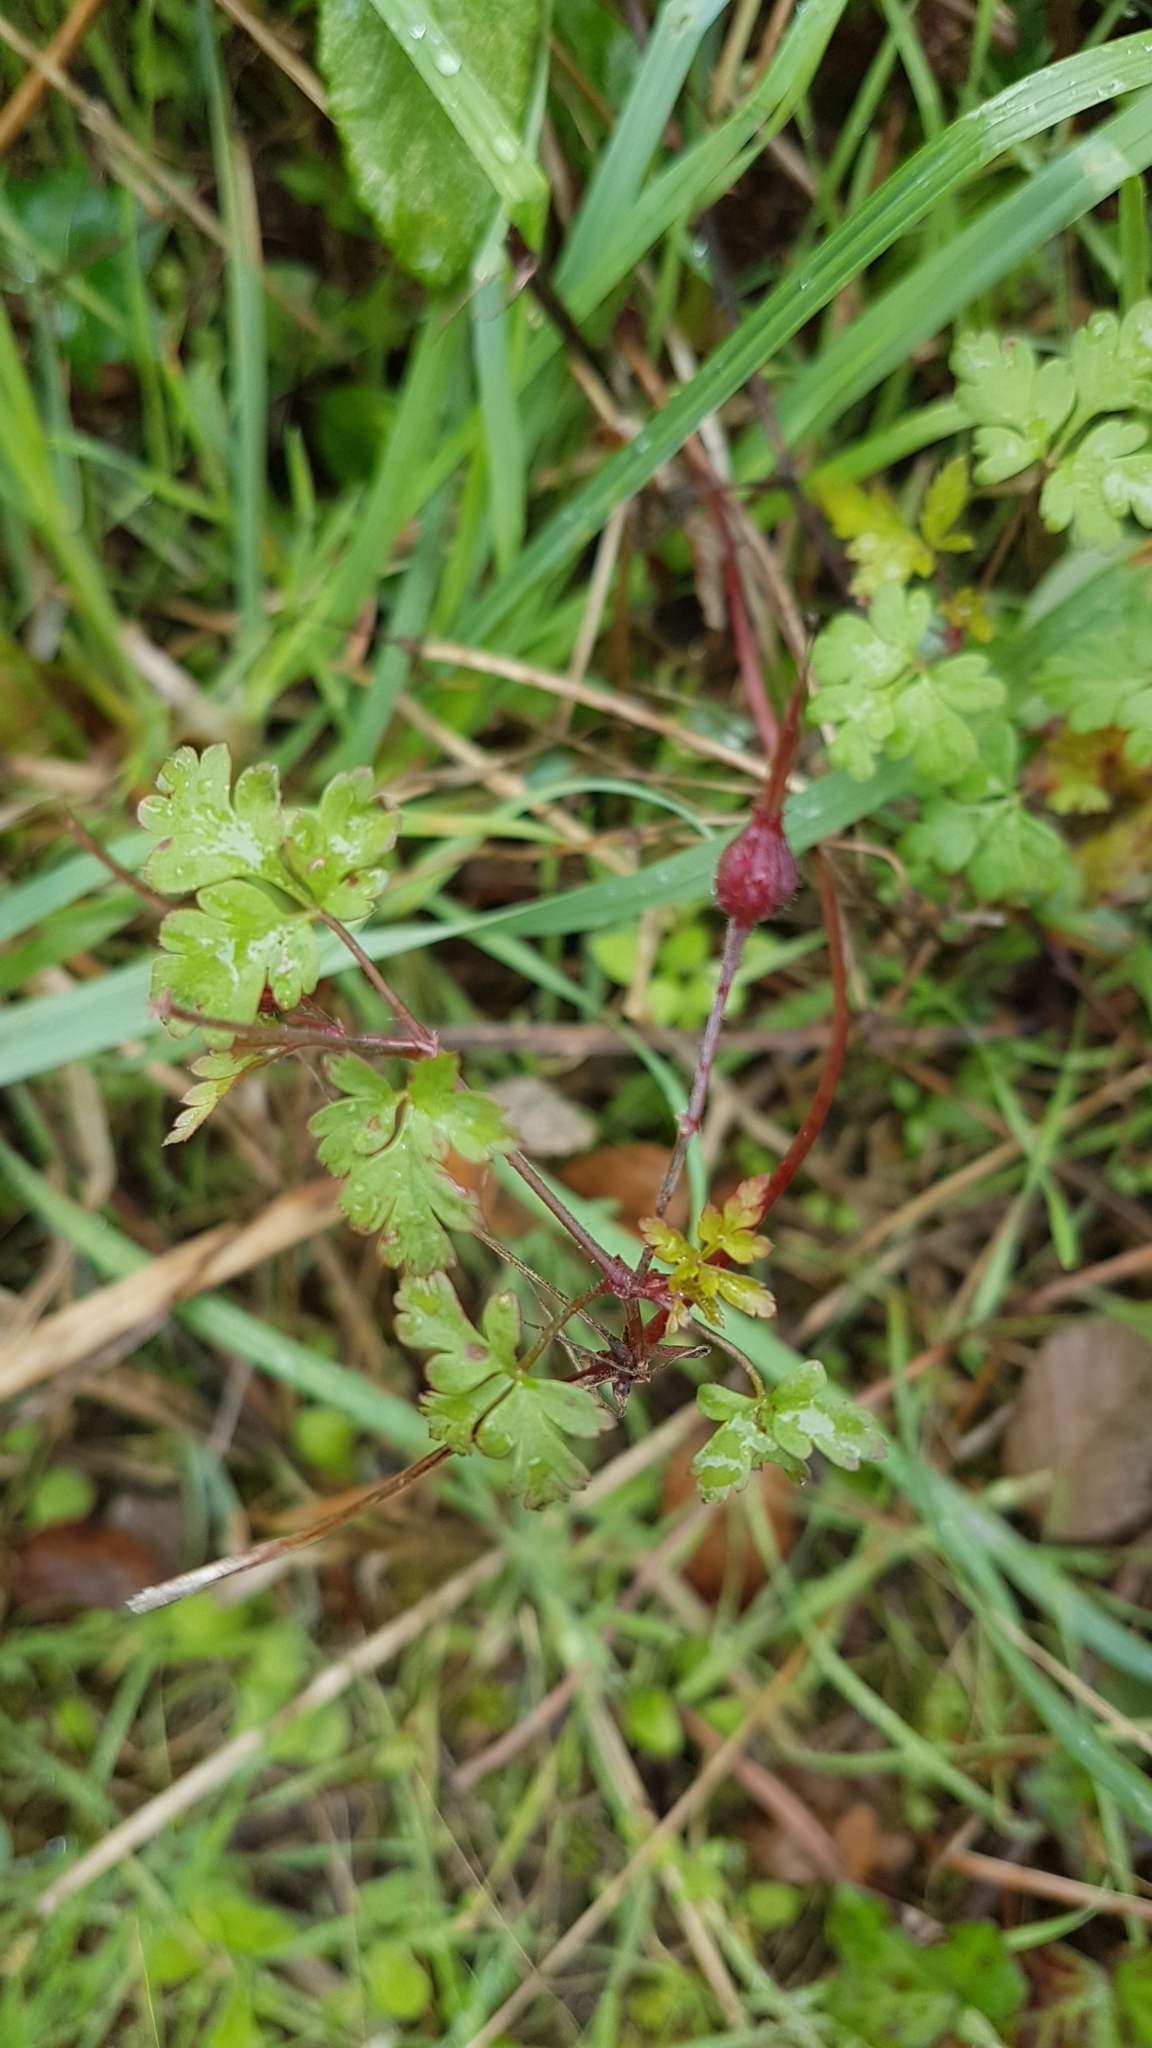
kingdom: Plantae
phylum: Tracheophyta
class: Magnoliopsida
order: Geraniales
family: Geraniaceae
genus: Geranium
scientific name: Geranium robertianum
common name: Herb-robert
